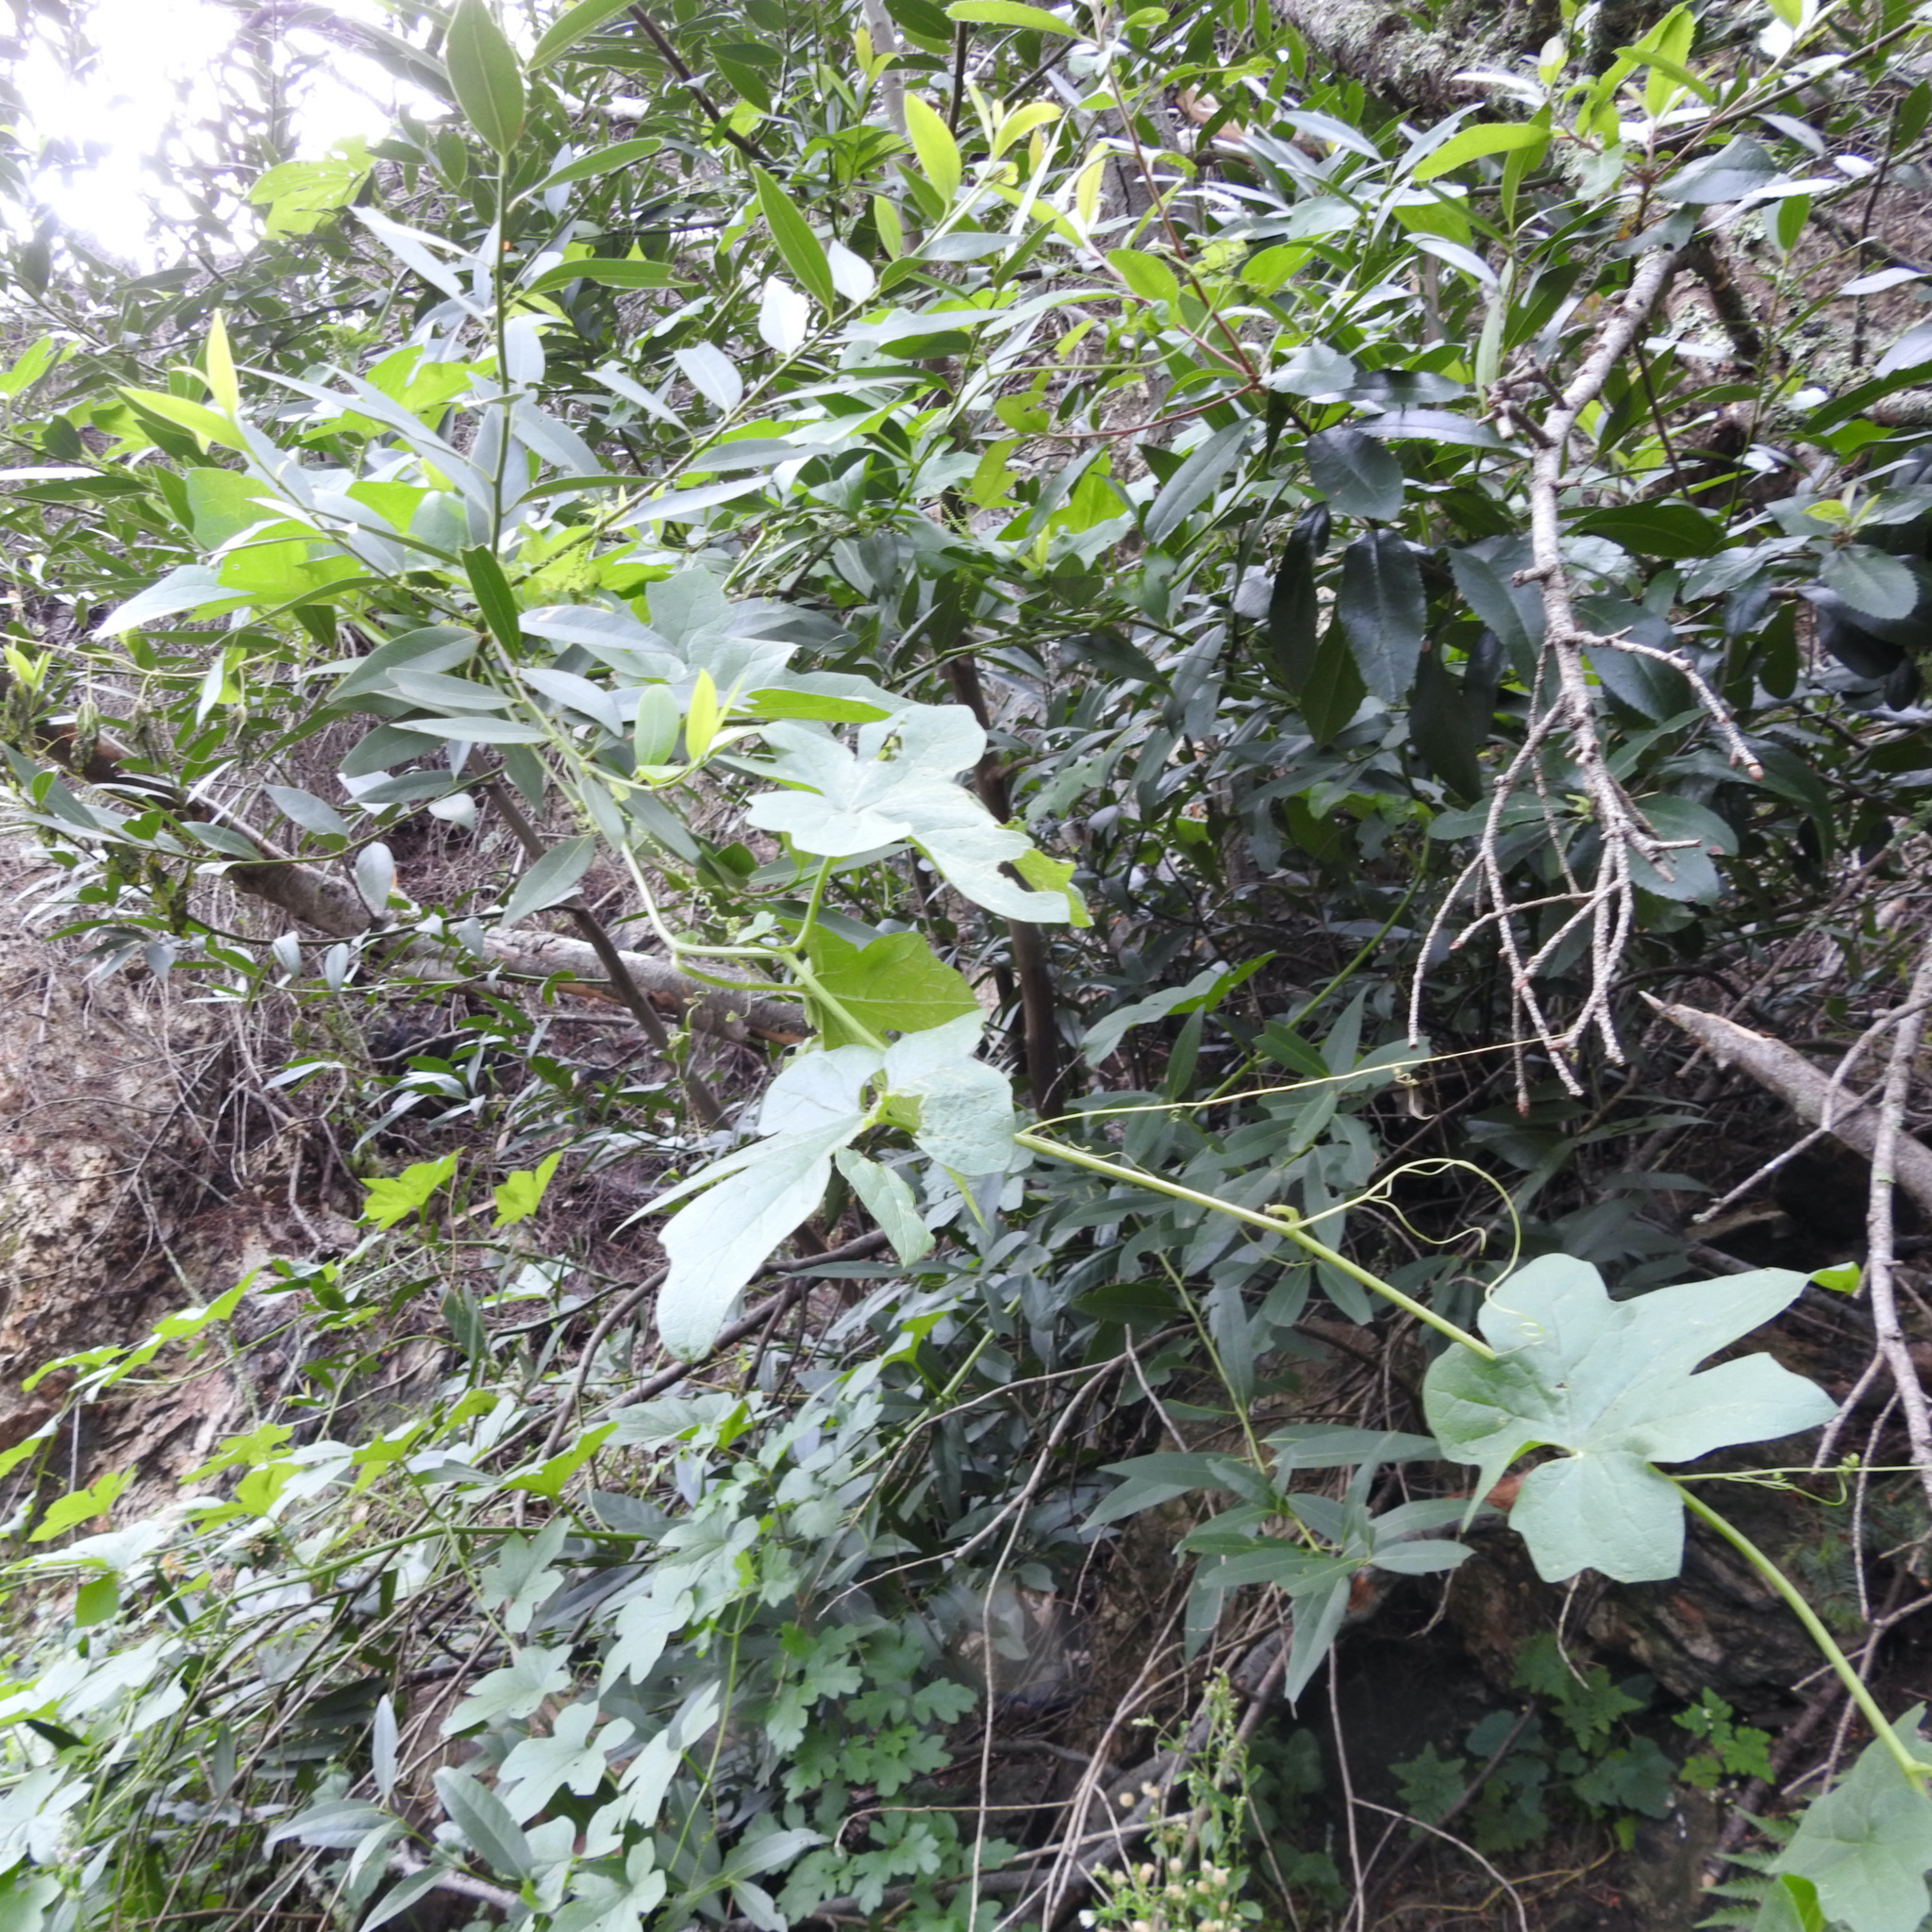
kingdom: Plantae
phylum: Tracheophyta
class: Magnoliopsida
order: Cucurbitales
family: Cucurbitaceae
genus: Marah
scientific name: Marah oregana
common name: Coastal manroot
